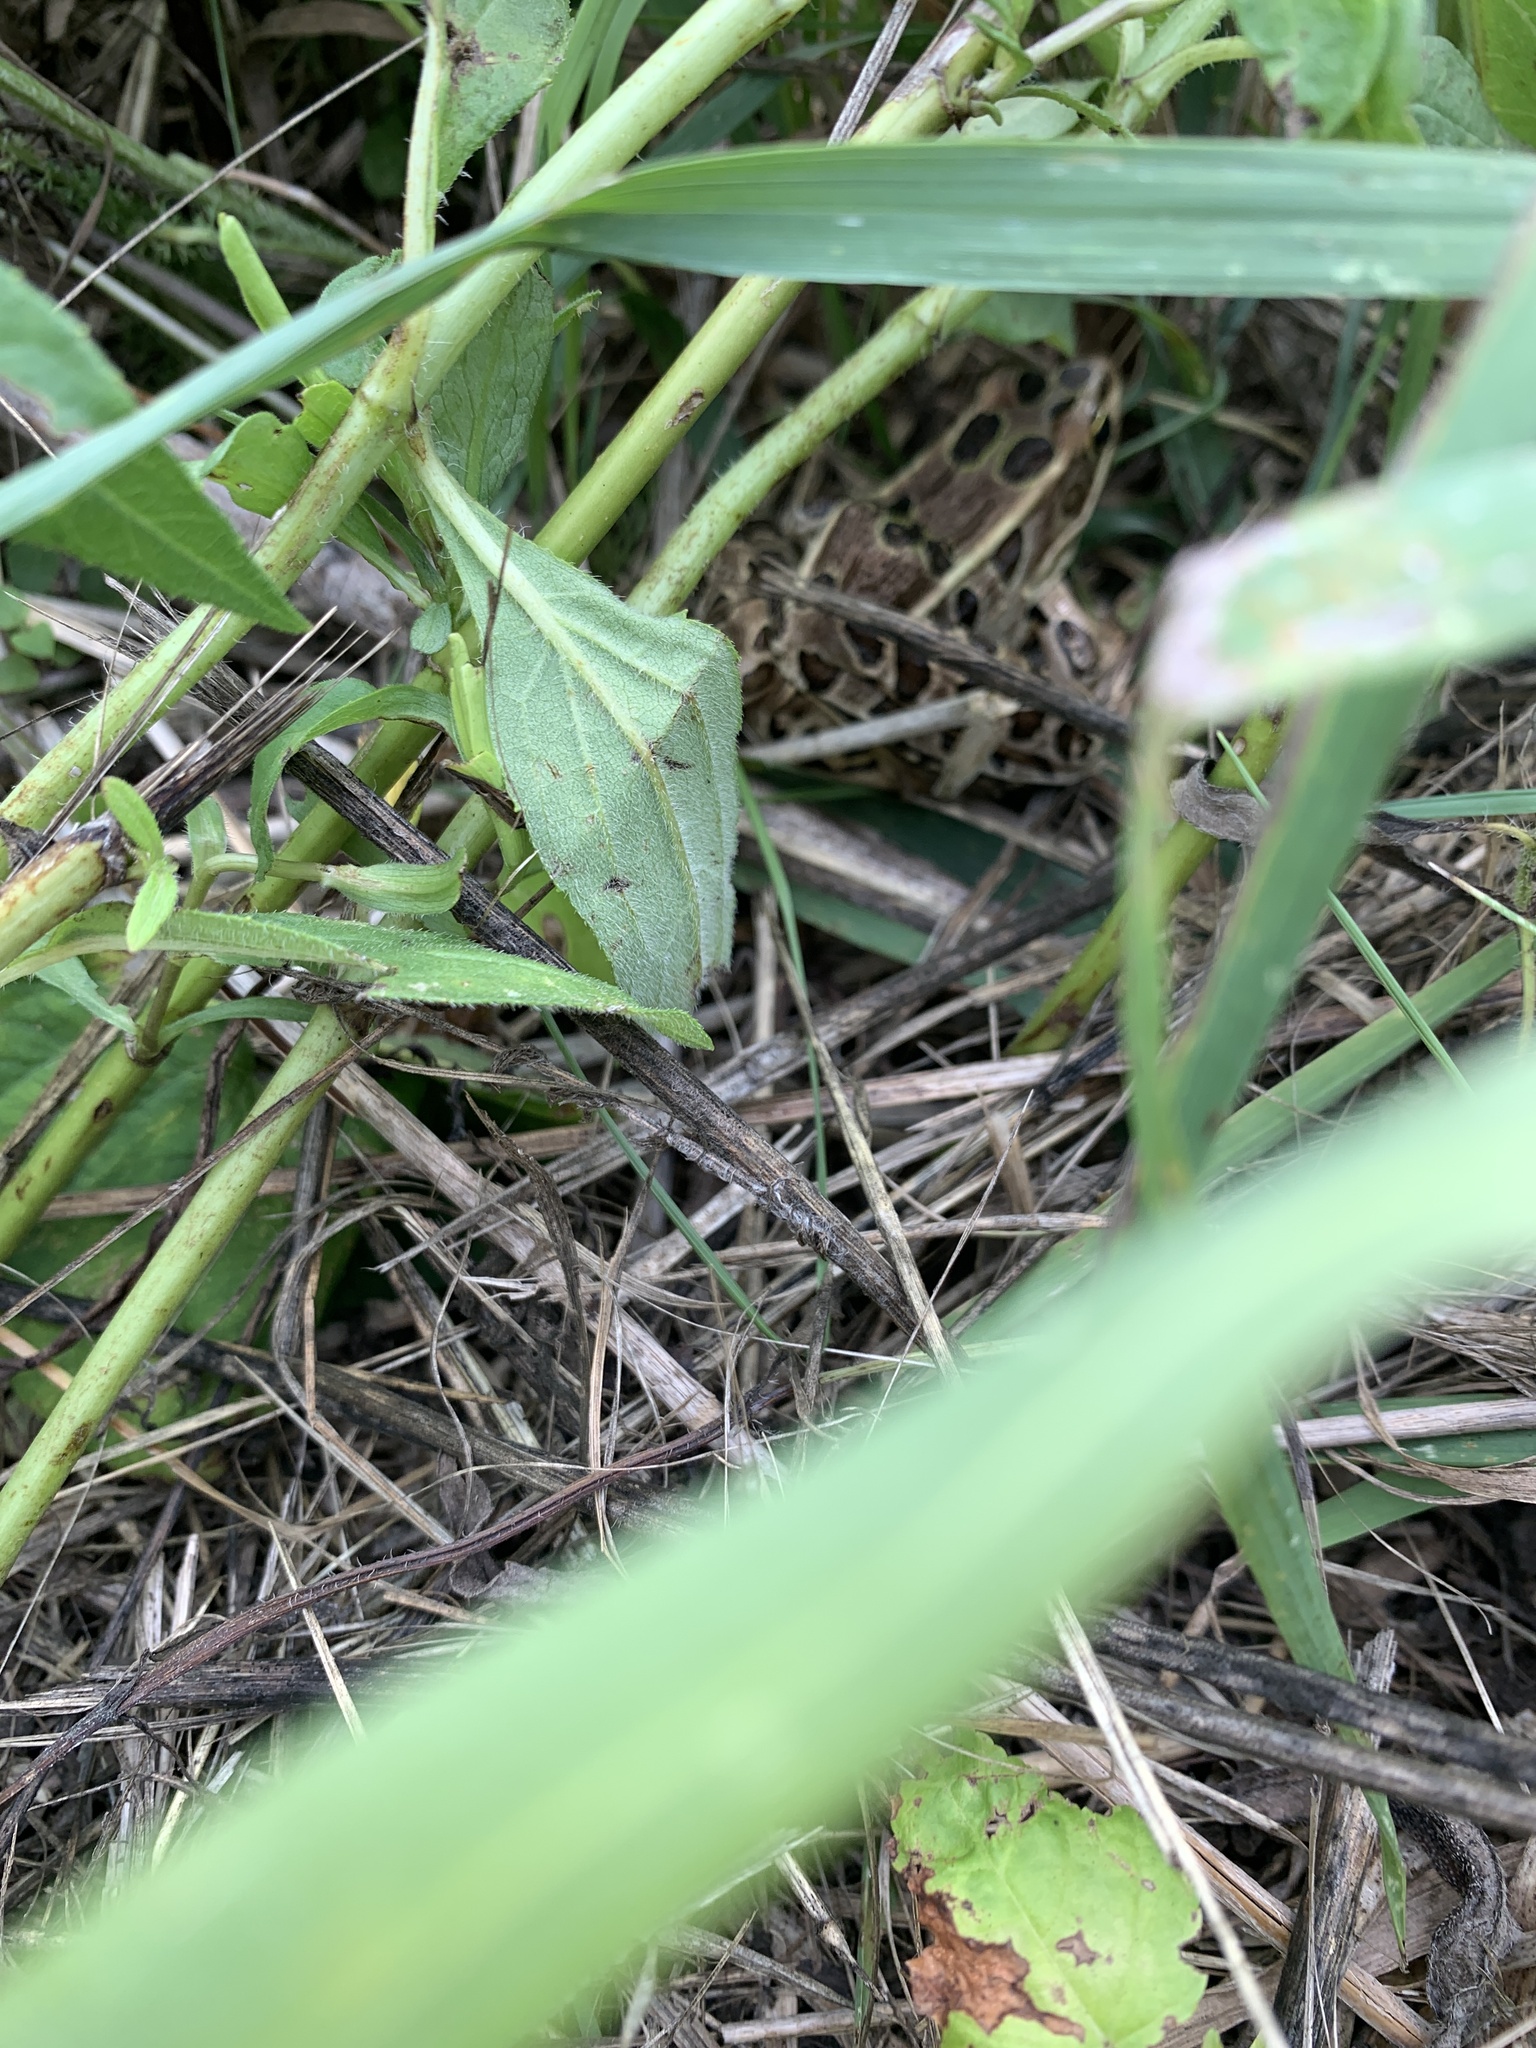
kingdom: Animalia
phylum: Chordata
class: Amphibia
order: Anura
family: Ranidae
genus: Lithobates
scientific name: Lithobates pipiens
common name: Northern leopard frog
